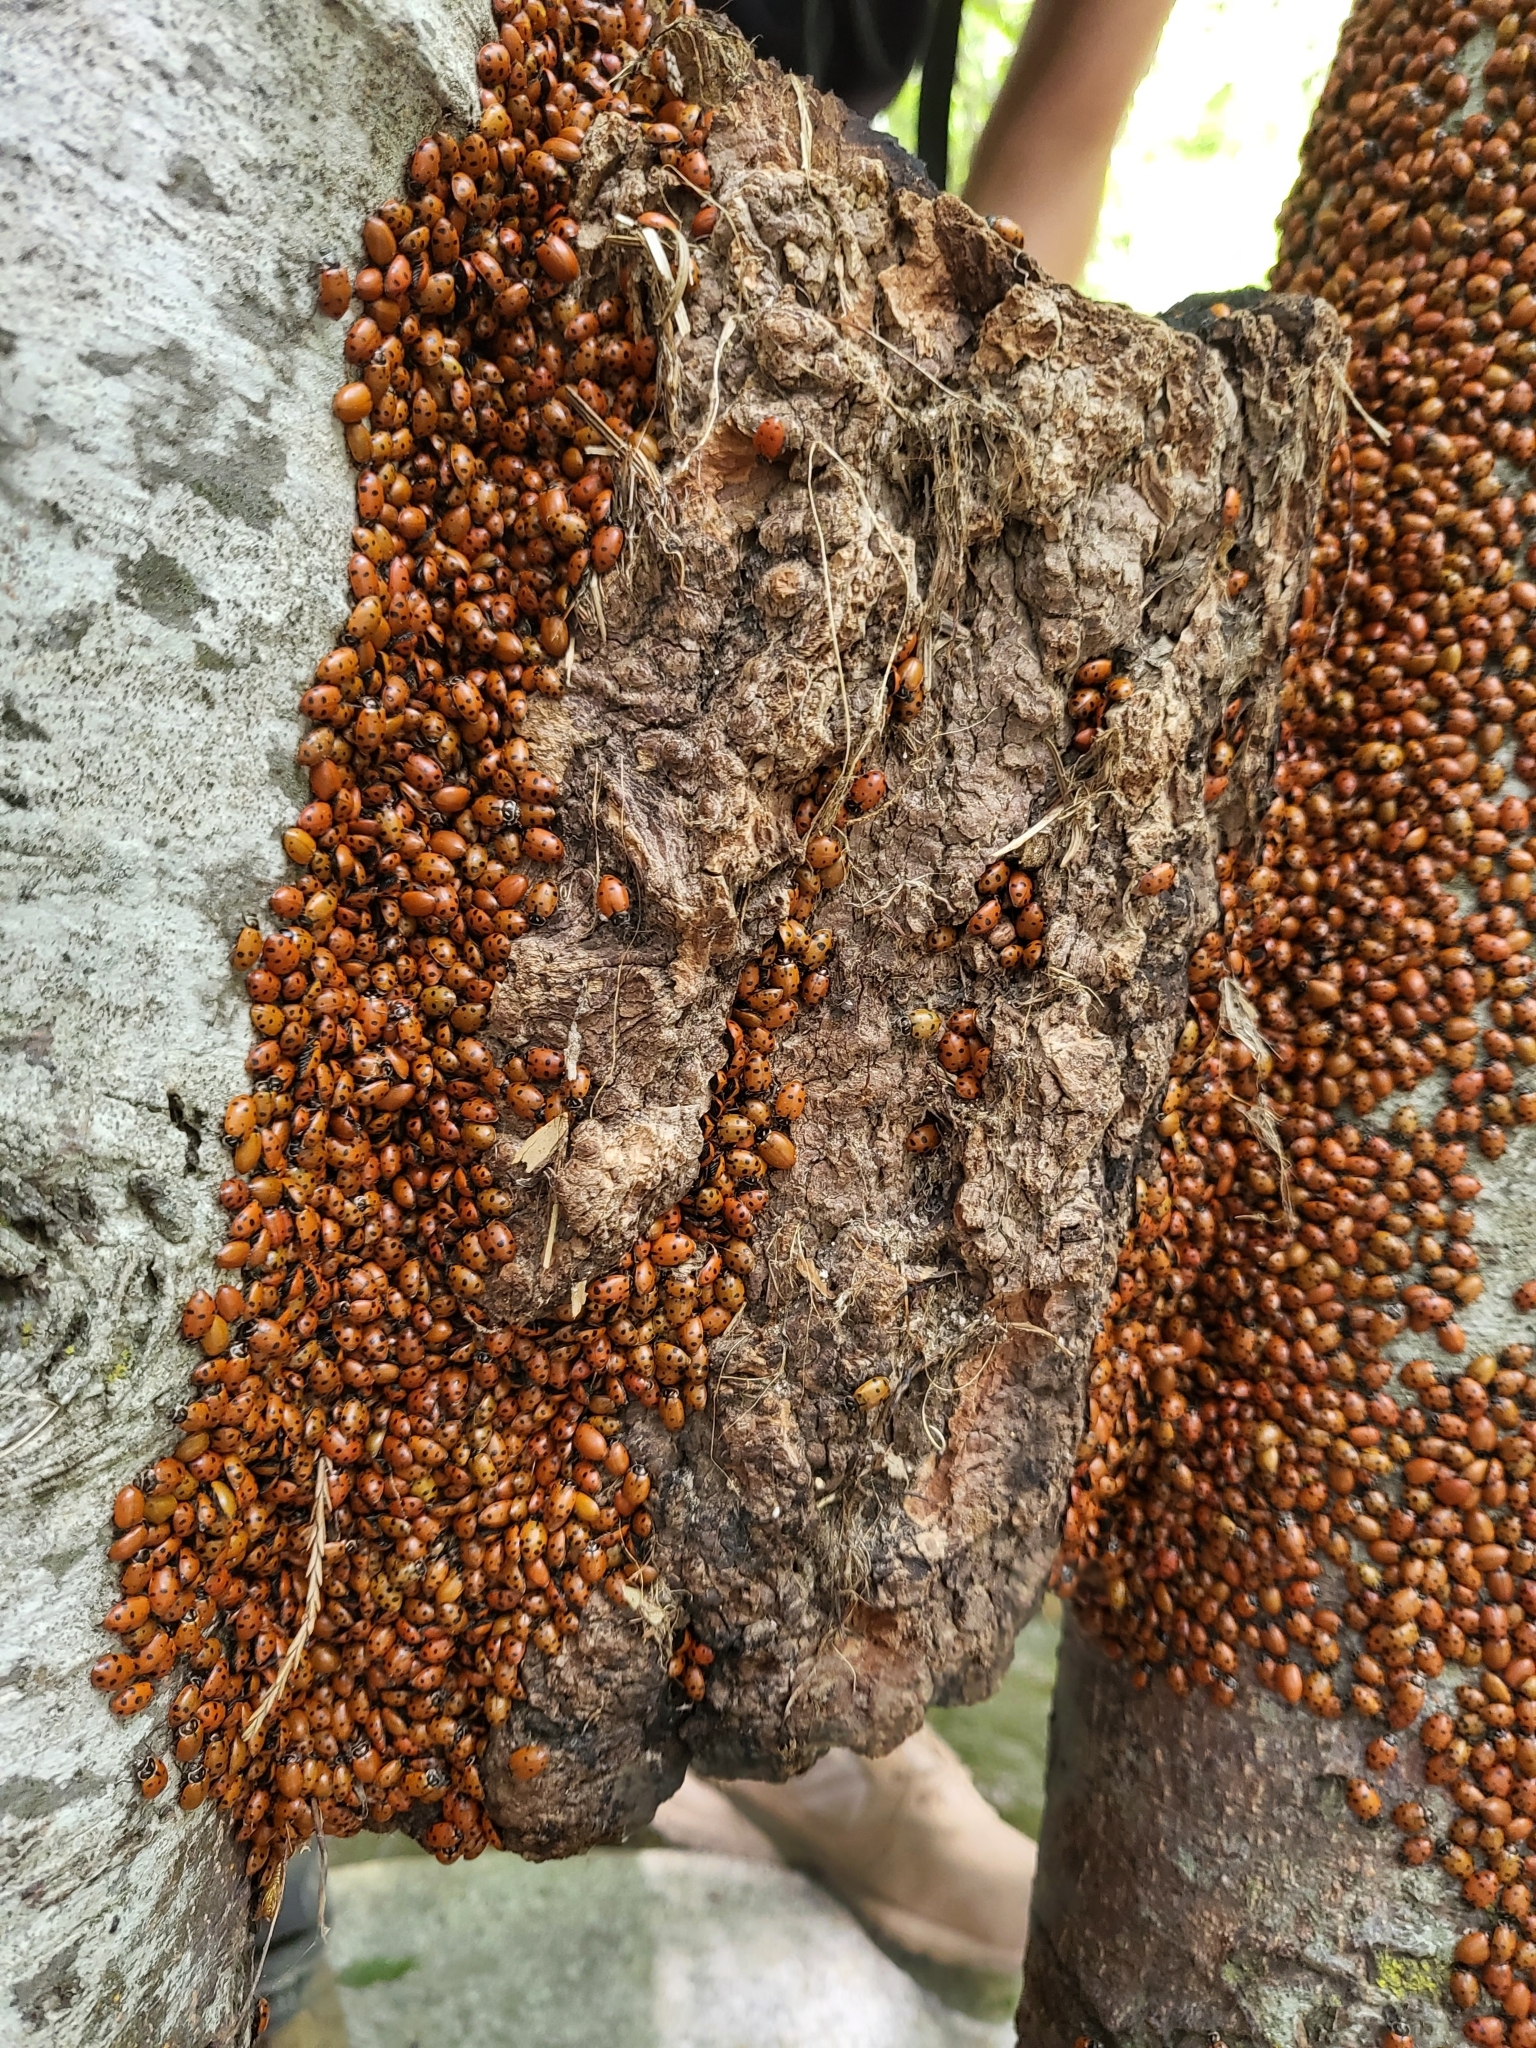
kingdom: Animalia
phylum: Arthropoda
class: Insecta
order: Coleoptera
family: Coccinellidae
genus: Hippodamia
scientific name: Hippodamia convergens
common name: Convergent lady beetle
